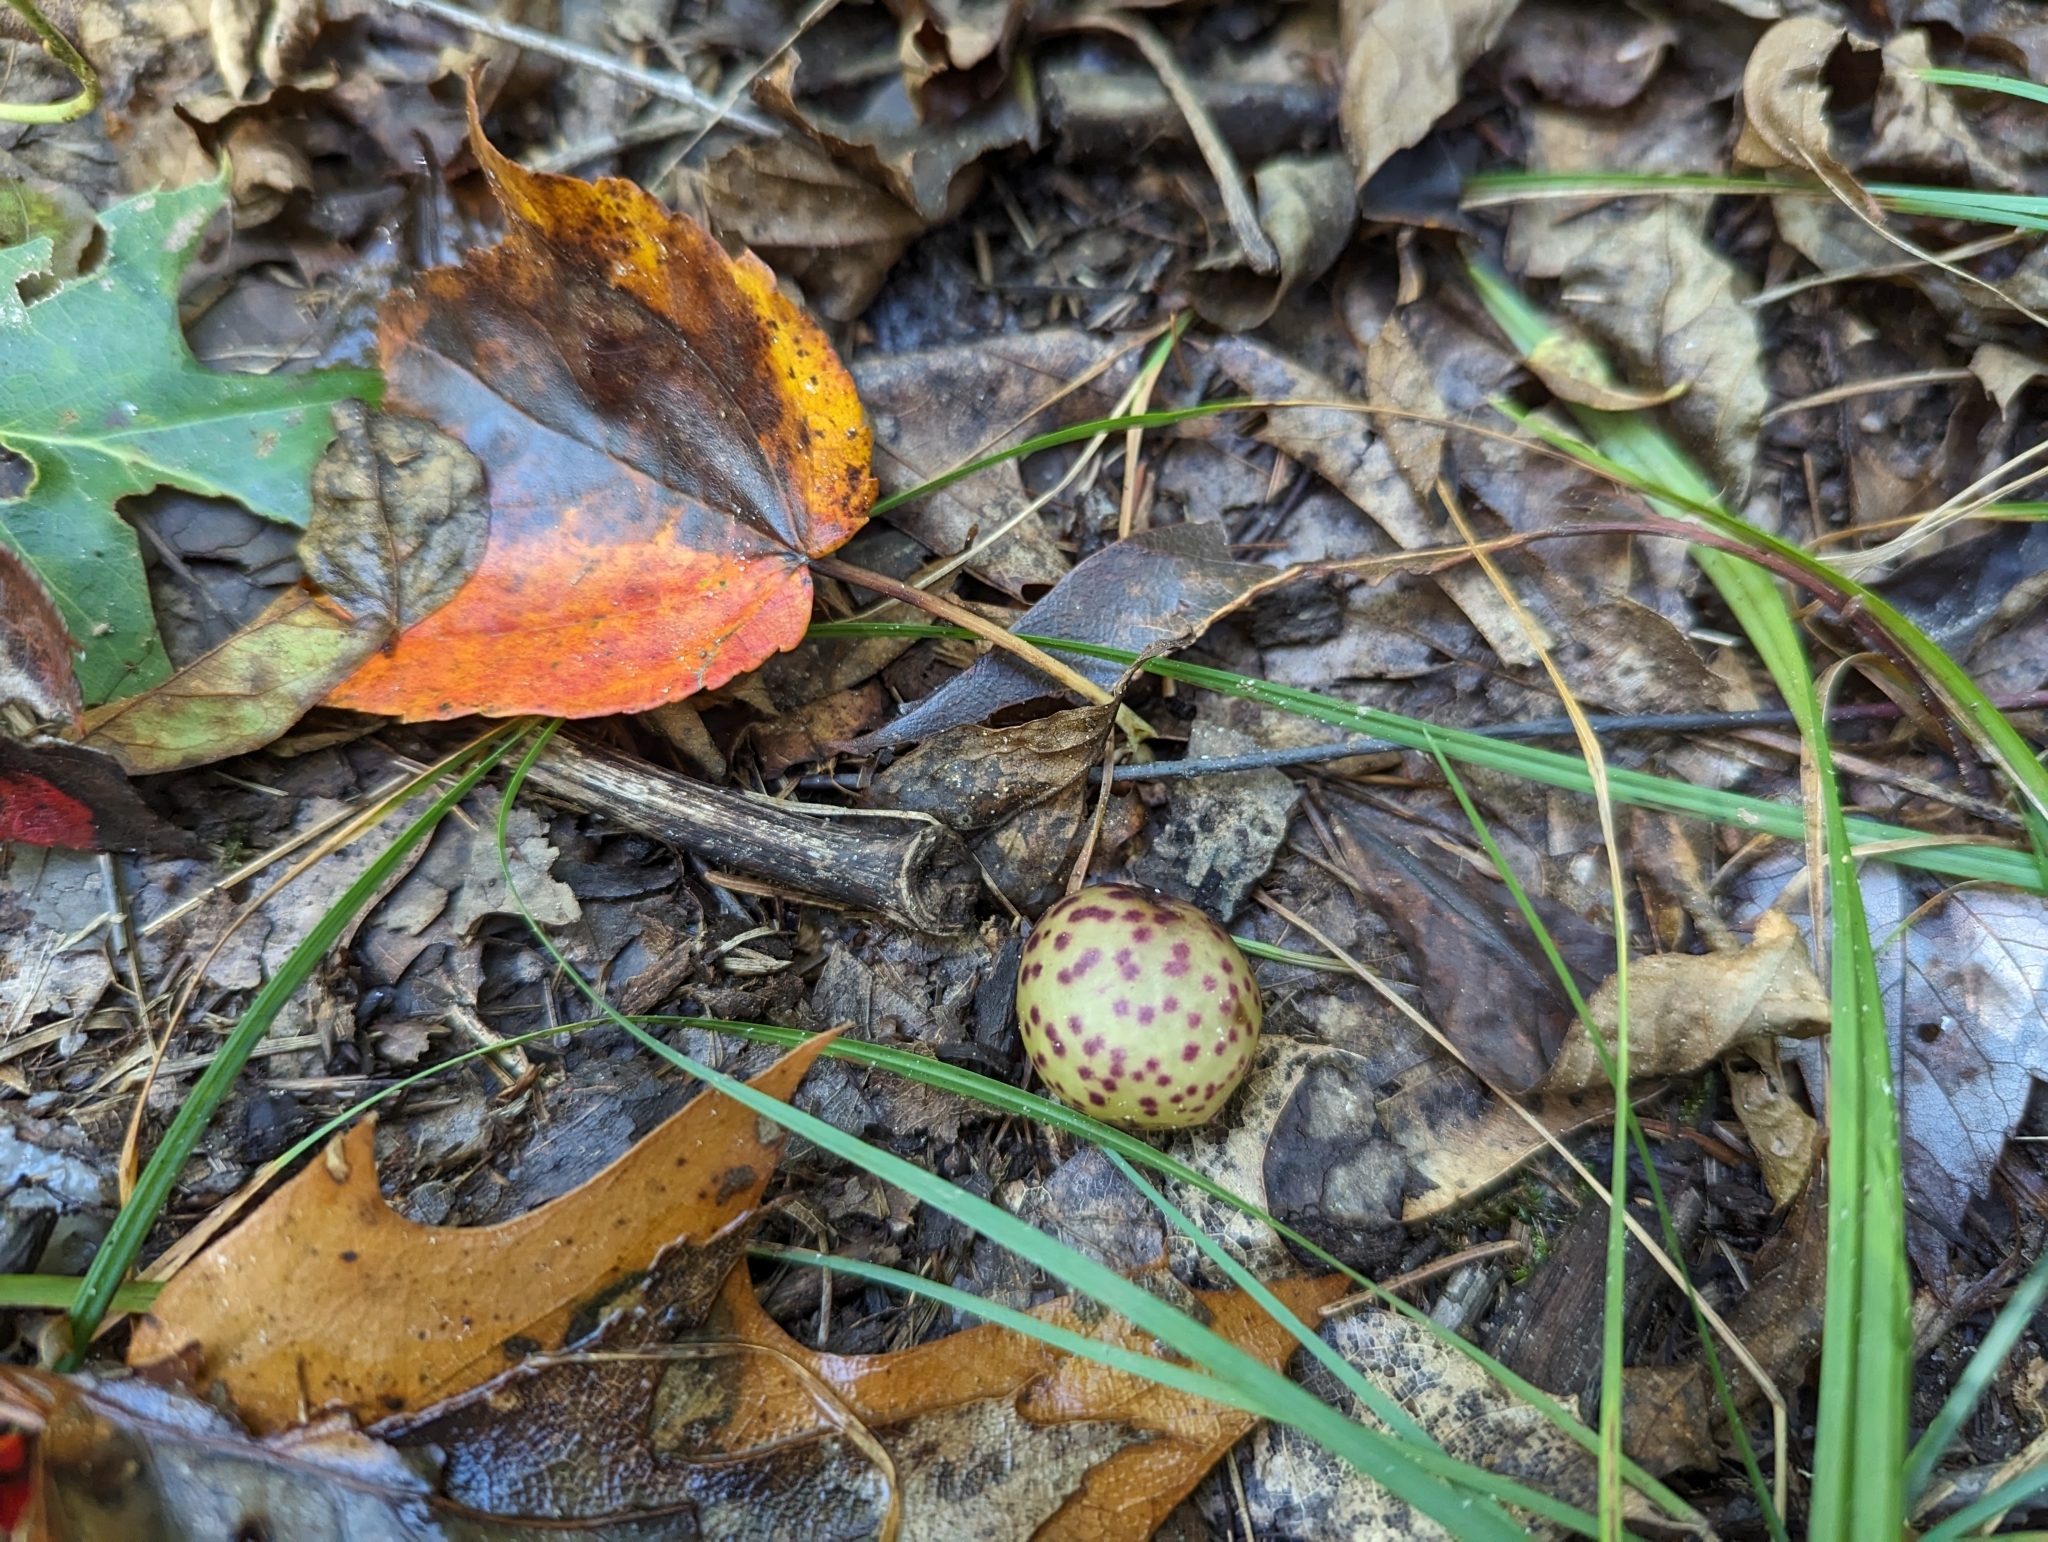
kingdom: Animalia
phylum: Arthropoda
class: Insecta
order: Hymenoptera
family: Cynipidae
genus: Amphibolips
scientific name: Amphibolips
